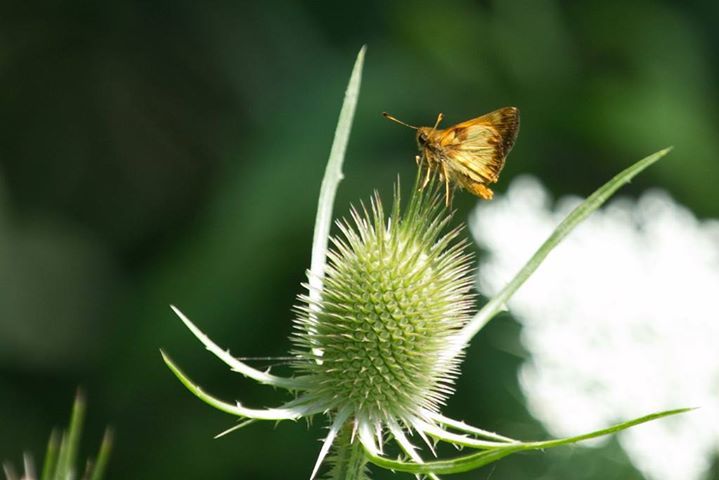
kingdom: Animalia
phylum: Arthropoda
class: Insecta
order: Lepidoptera
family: Hesperiidae
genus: Lon
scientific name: Lon zabulon
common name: Zabulon skipper
